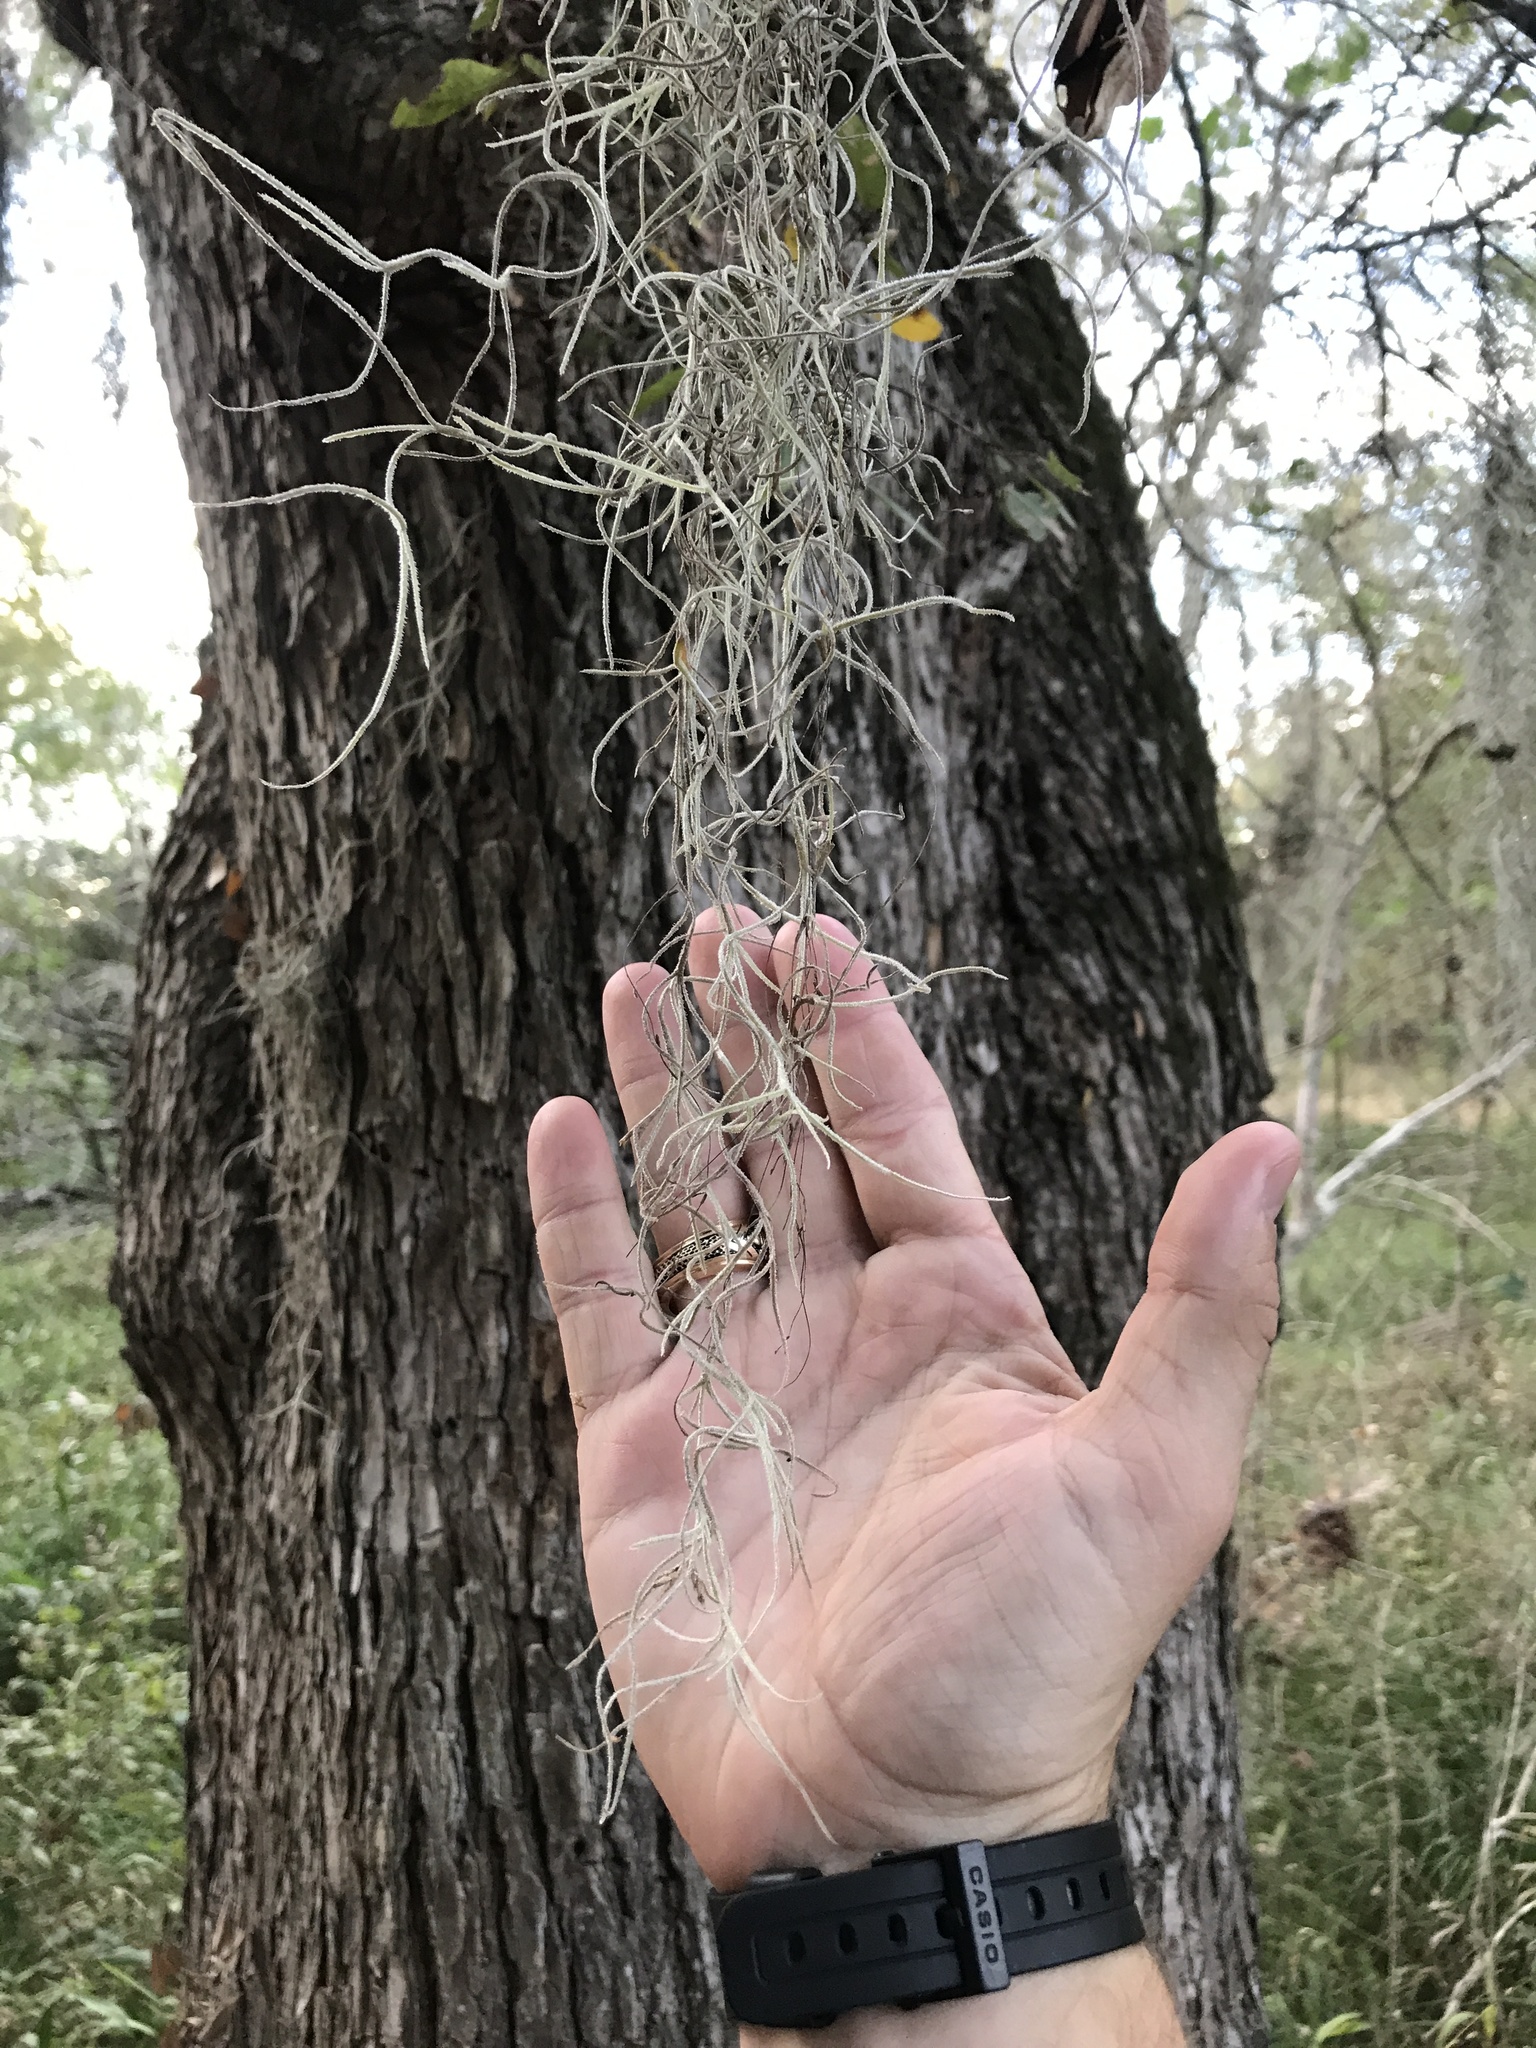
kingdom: Plantae
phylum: Tracheophyta
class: Liliopsida
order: Poales
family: Bromeliaceae
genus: Tillandsia
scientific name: Tillandsia usneoides
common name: Spanish moss
